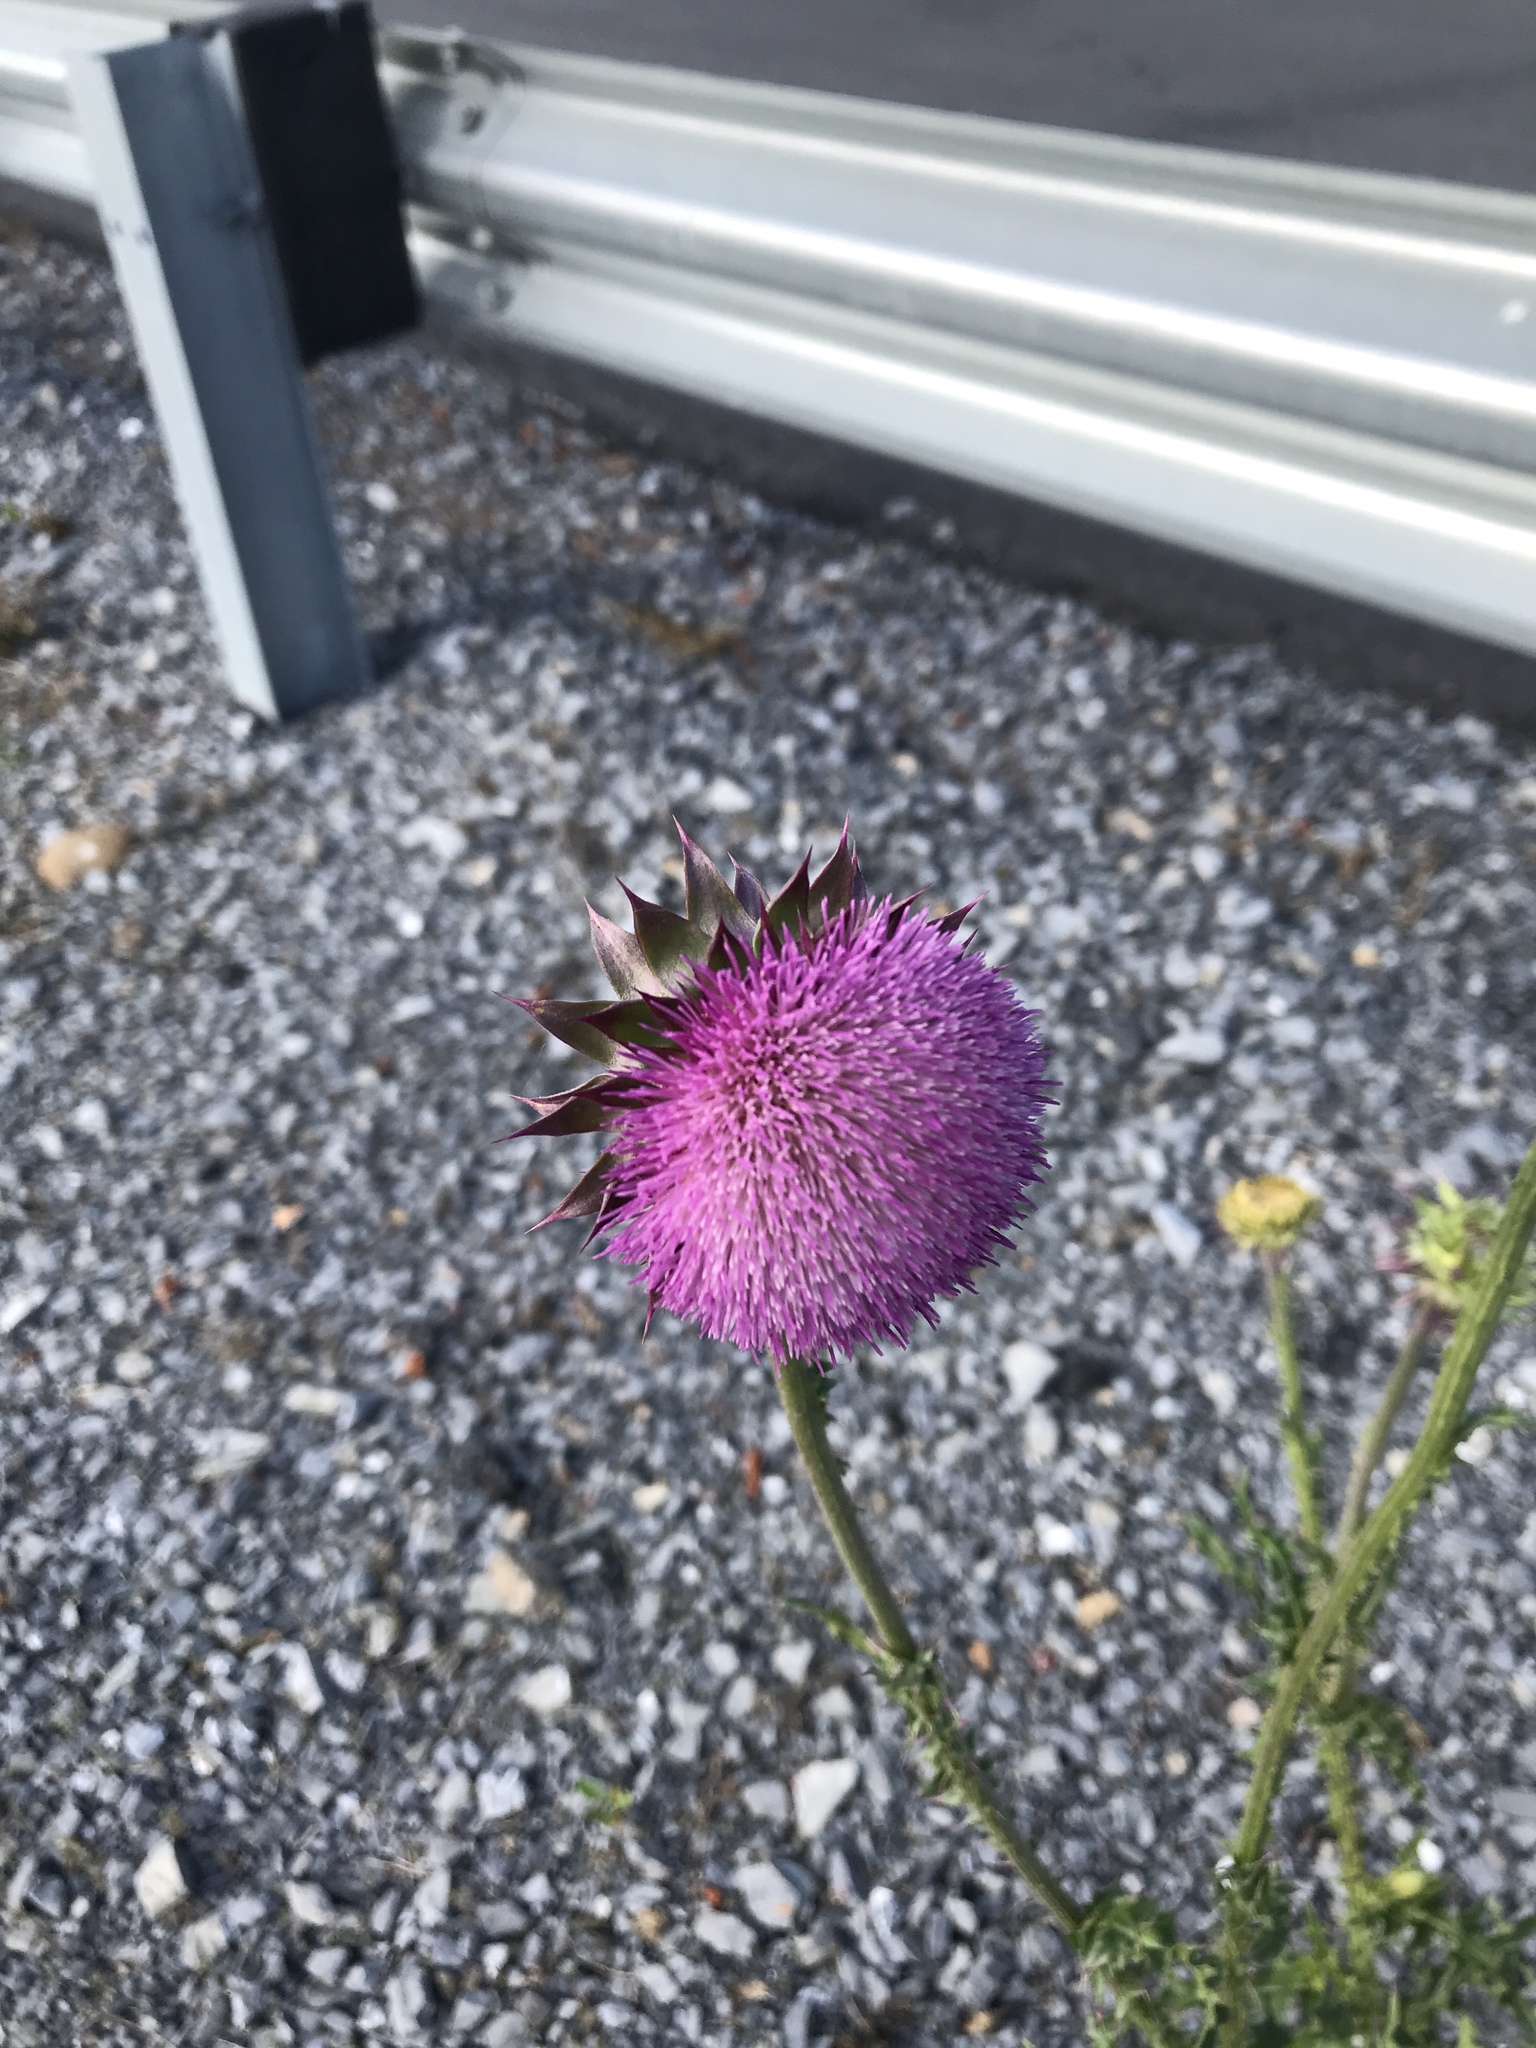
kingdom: Plantae
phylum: Tracheophyta
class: Magnoliopsida
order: Asterales
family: Asteraceae
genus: Carduus
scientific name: Carduus nutans
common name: Musk thistle
